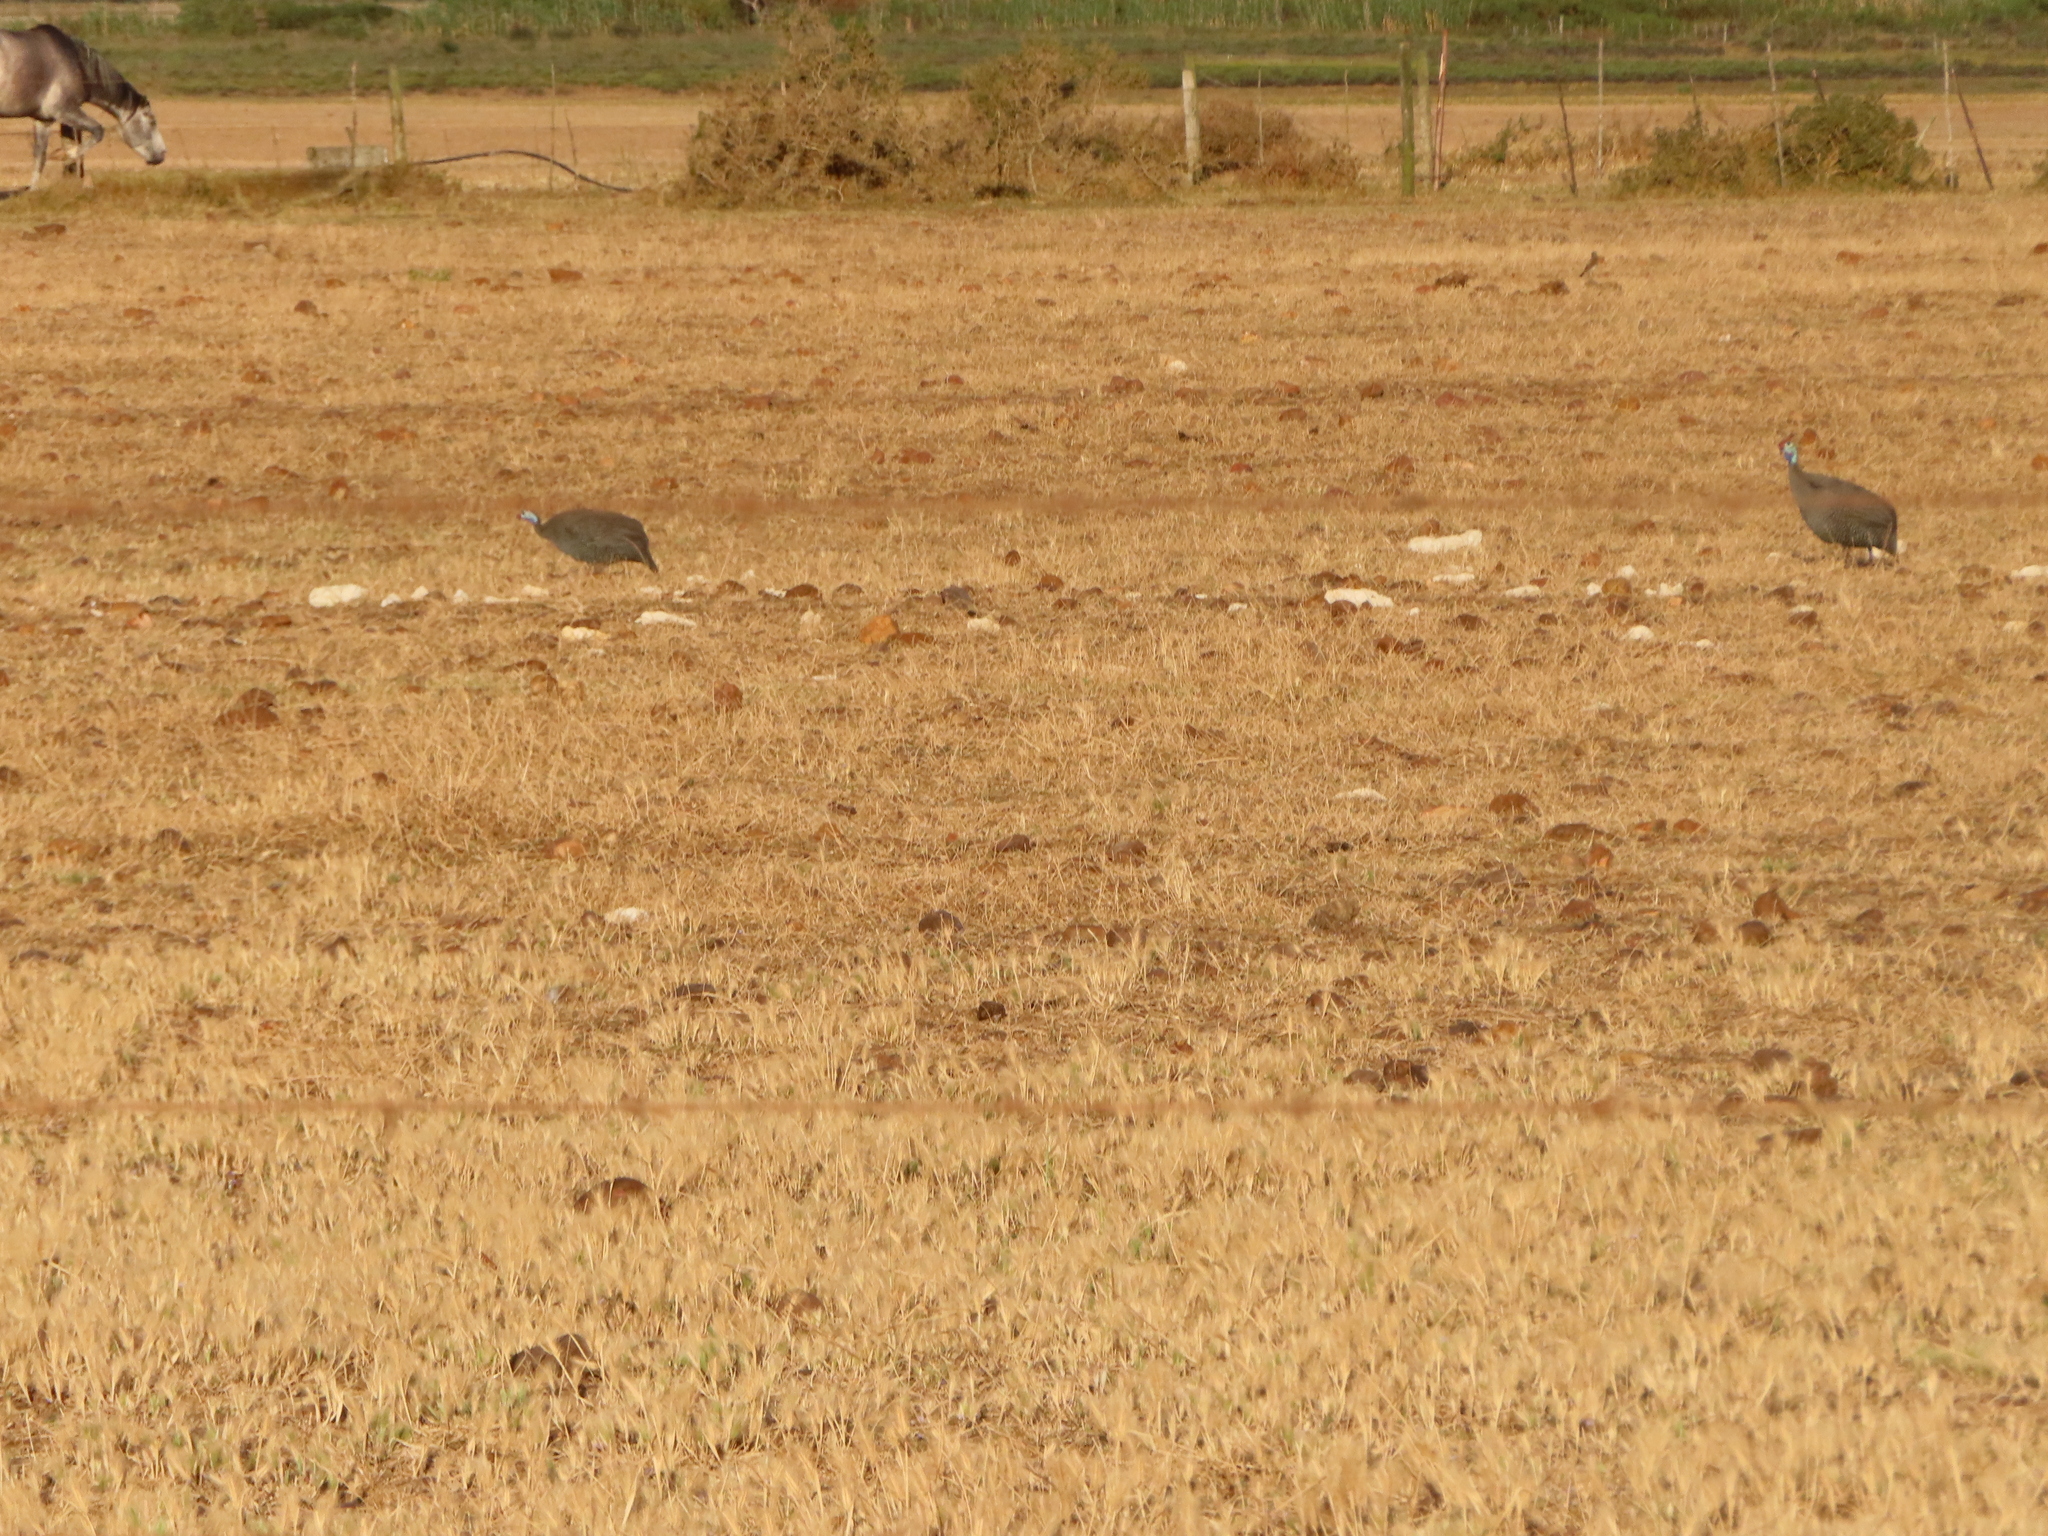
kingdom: Animalia
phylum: Chordata
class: Aves
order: Galliformes
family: Numididae
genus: Numida
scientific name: Numida meleagris
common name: Helmeted guineafowl
